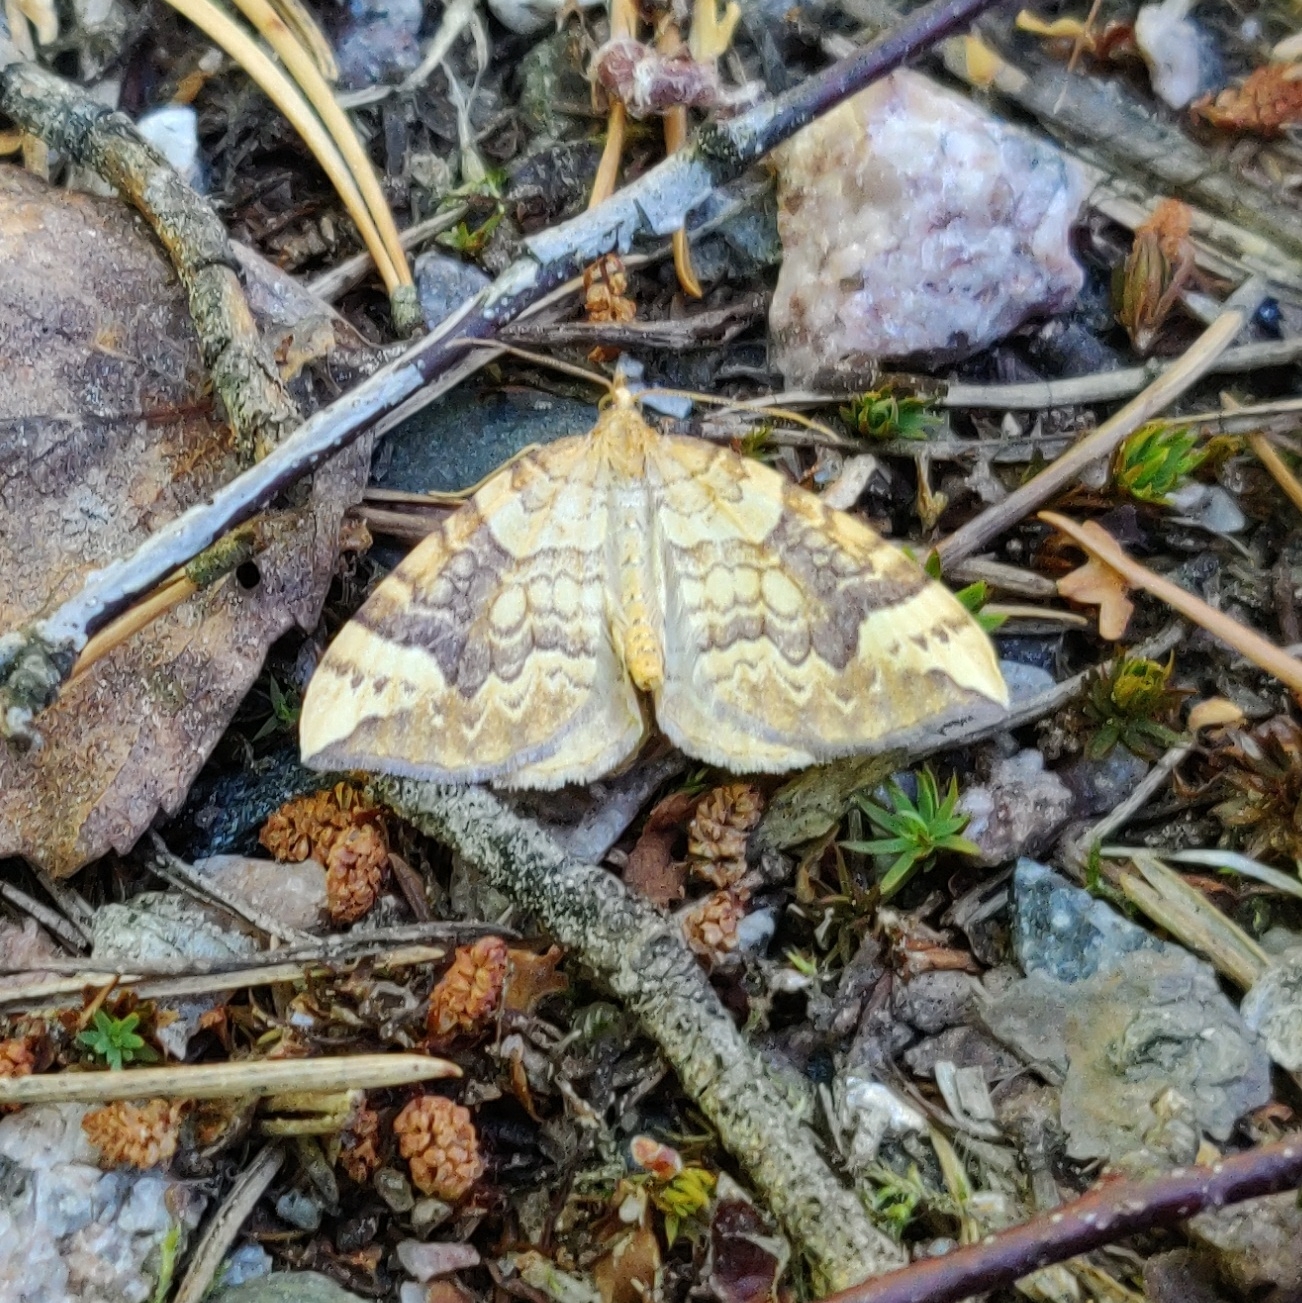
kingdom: Animalia
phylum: Arthropoda
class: Insecta
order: Lepidoptera
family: Geometridae
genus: Eulithis
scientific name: Eulithis populata
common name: Northern spinach
